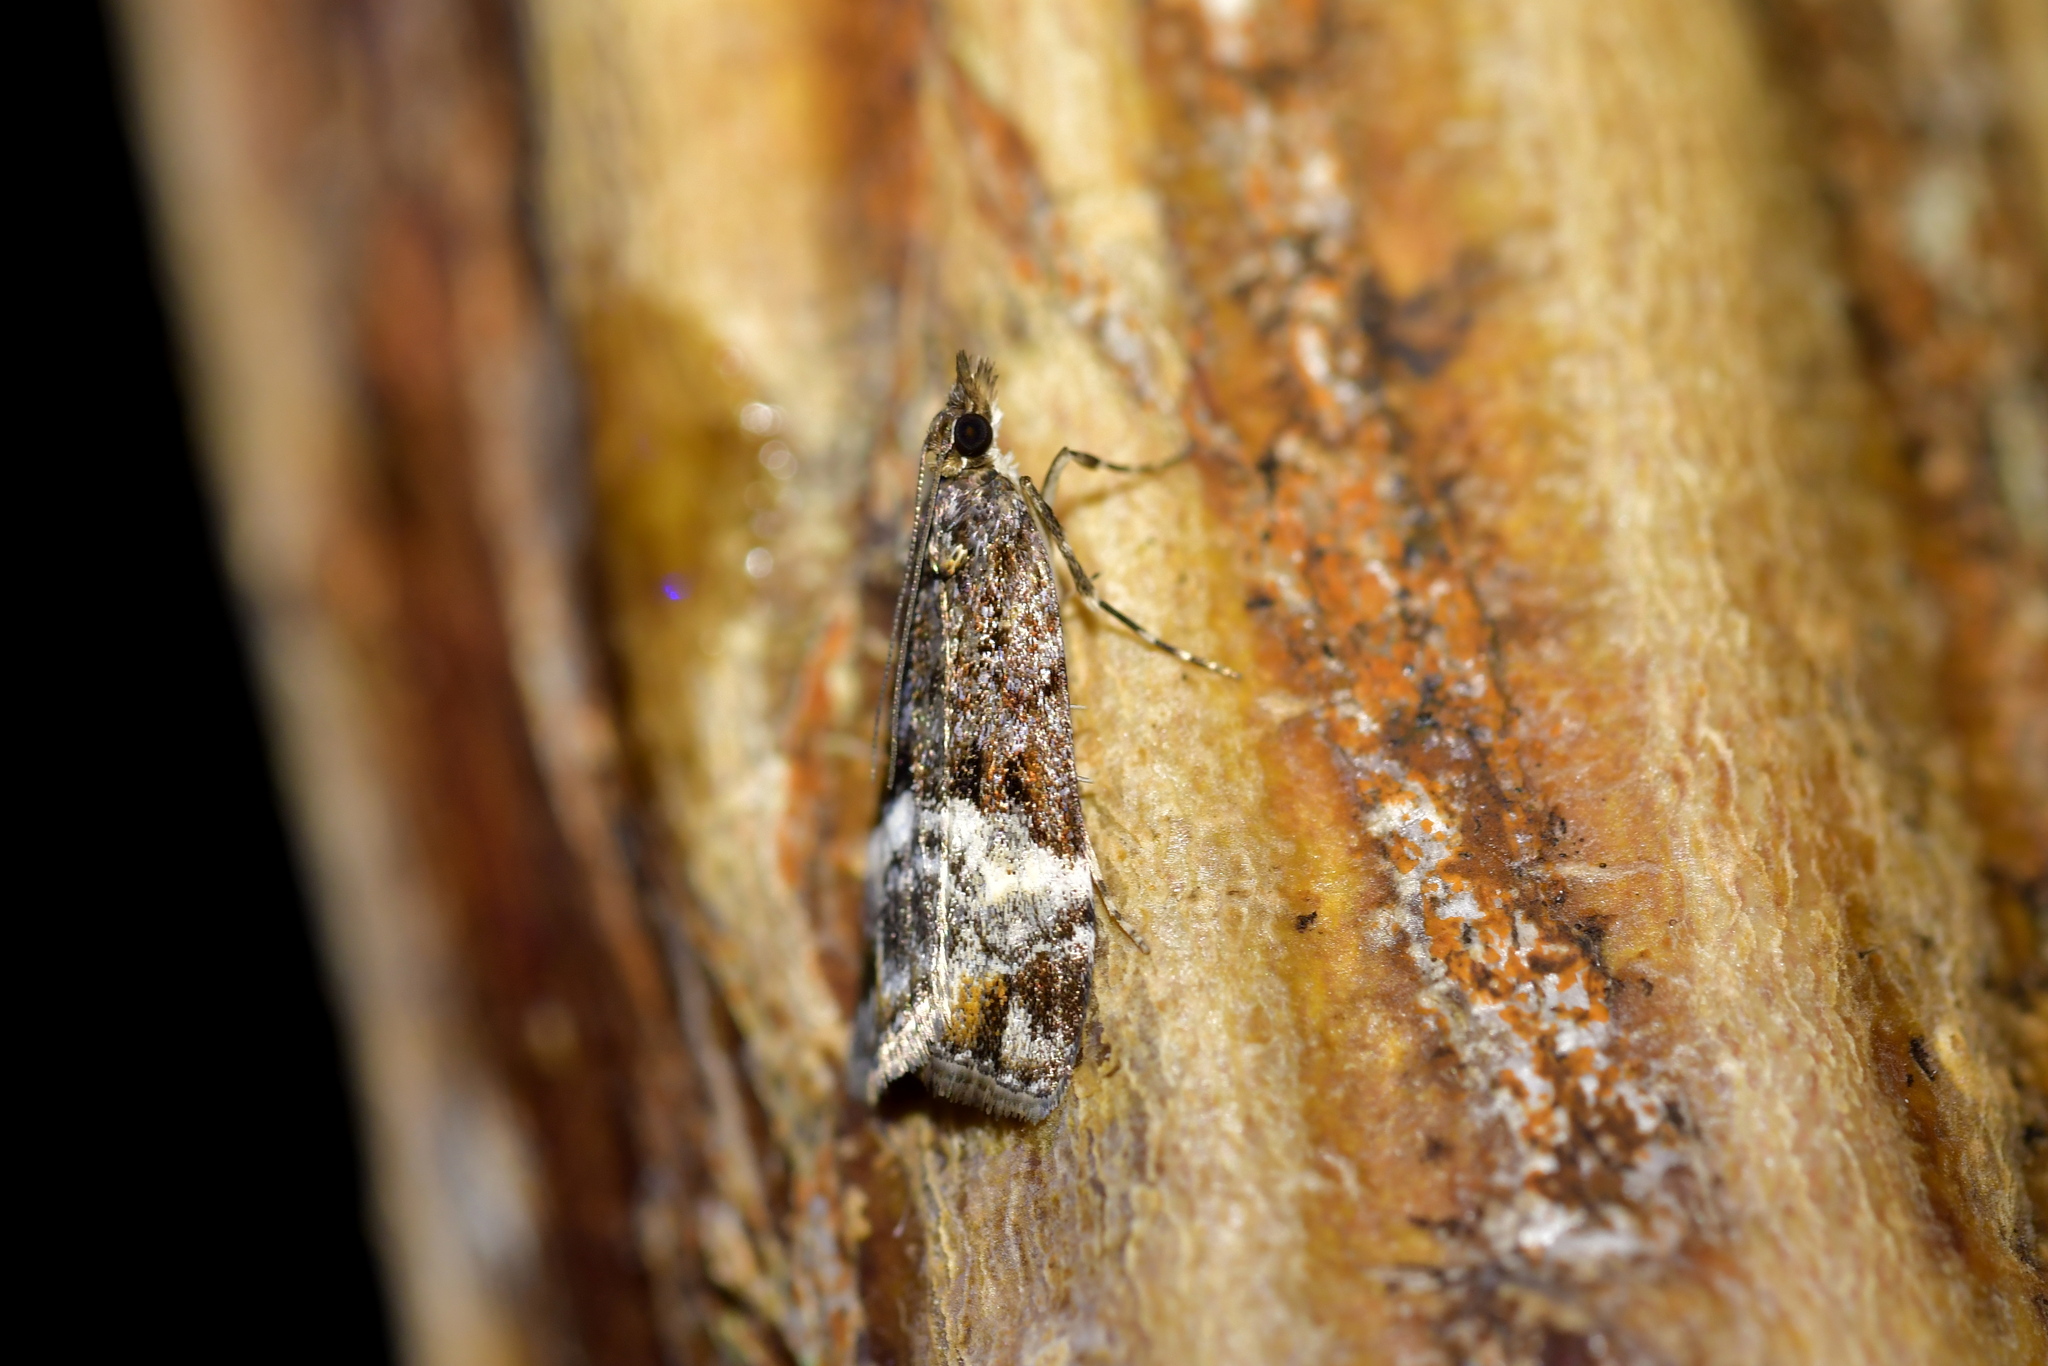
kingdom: Animalia
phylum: Arthropoda
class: Insecta
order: Lepidoptera
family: Crambidae
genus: Scoparia
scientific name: Scoparia minusculalis
